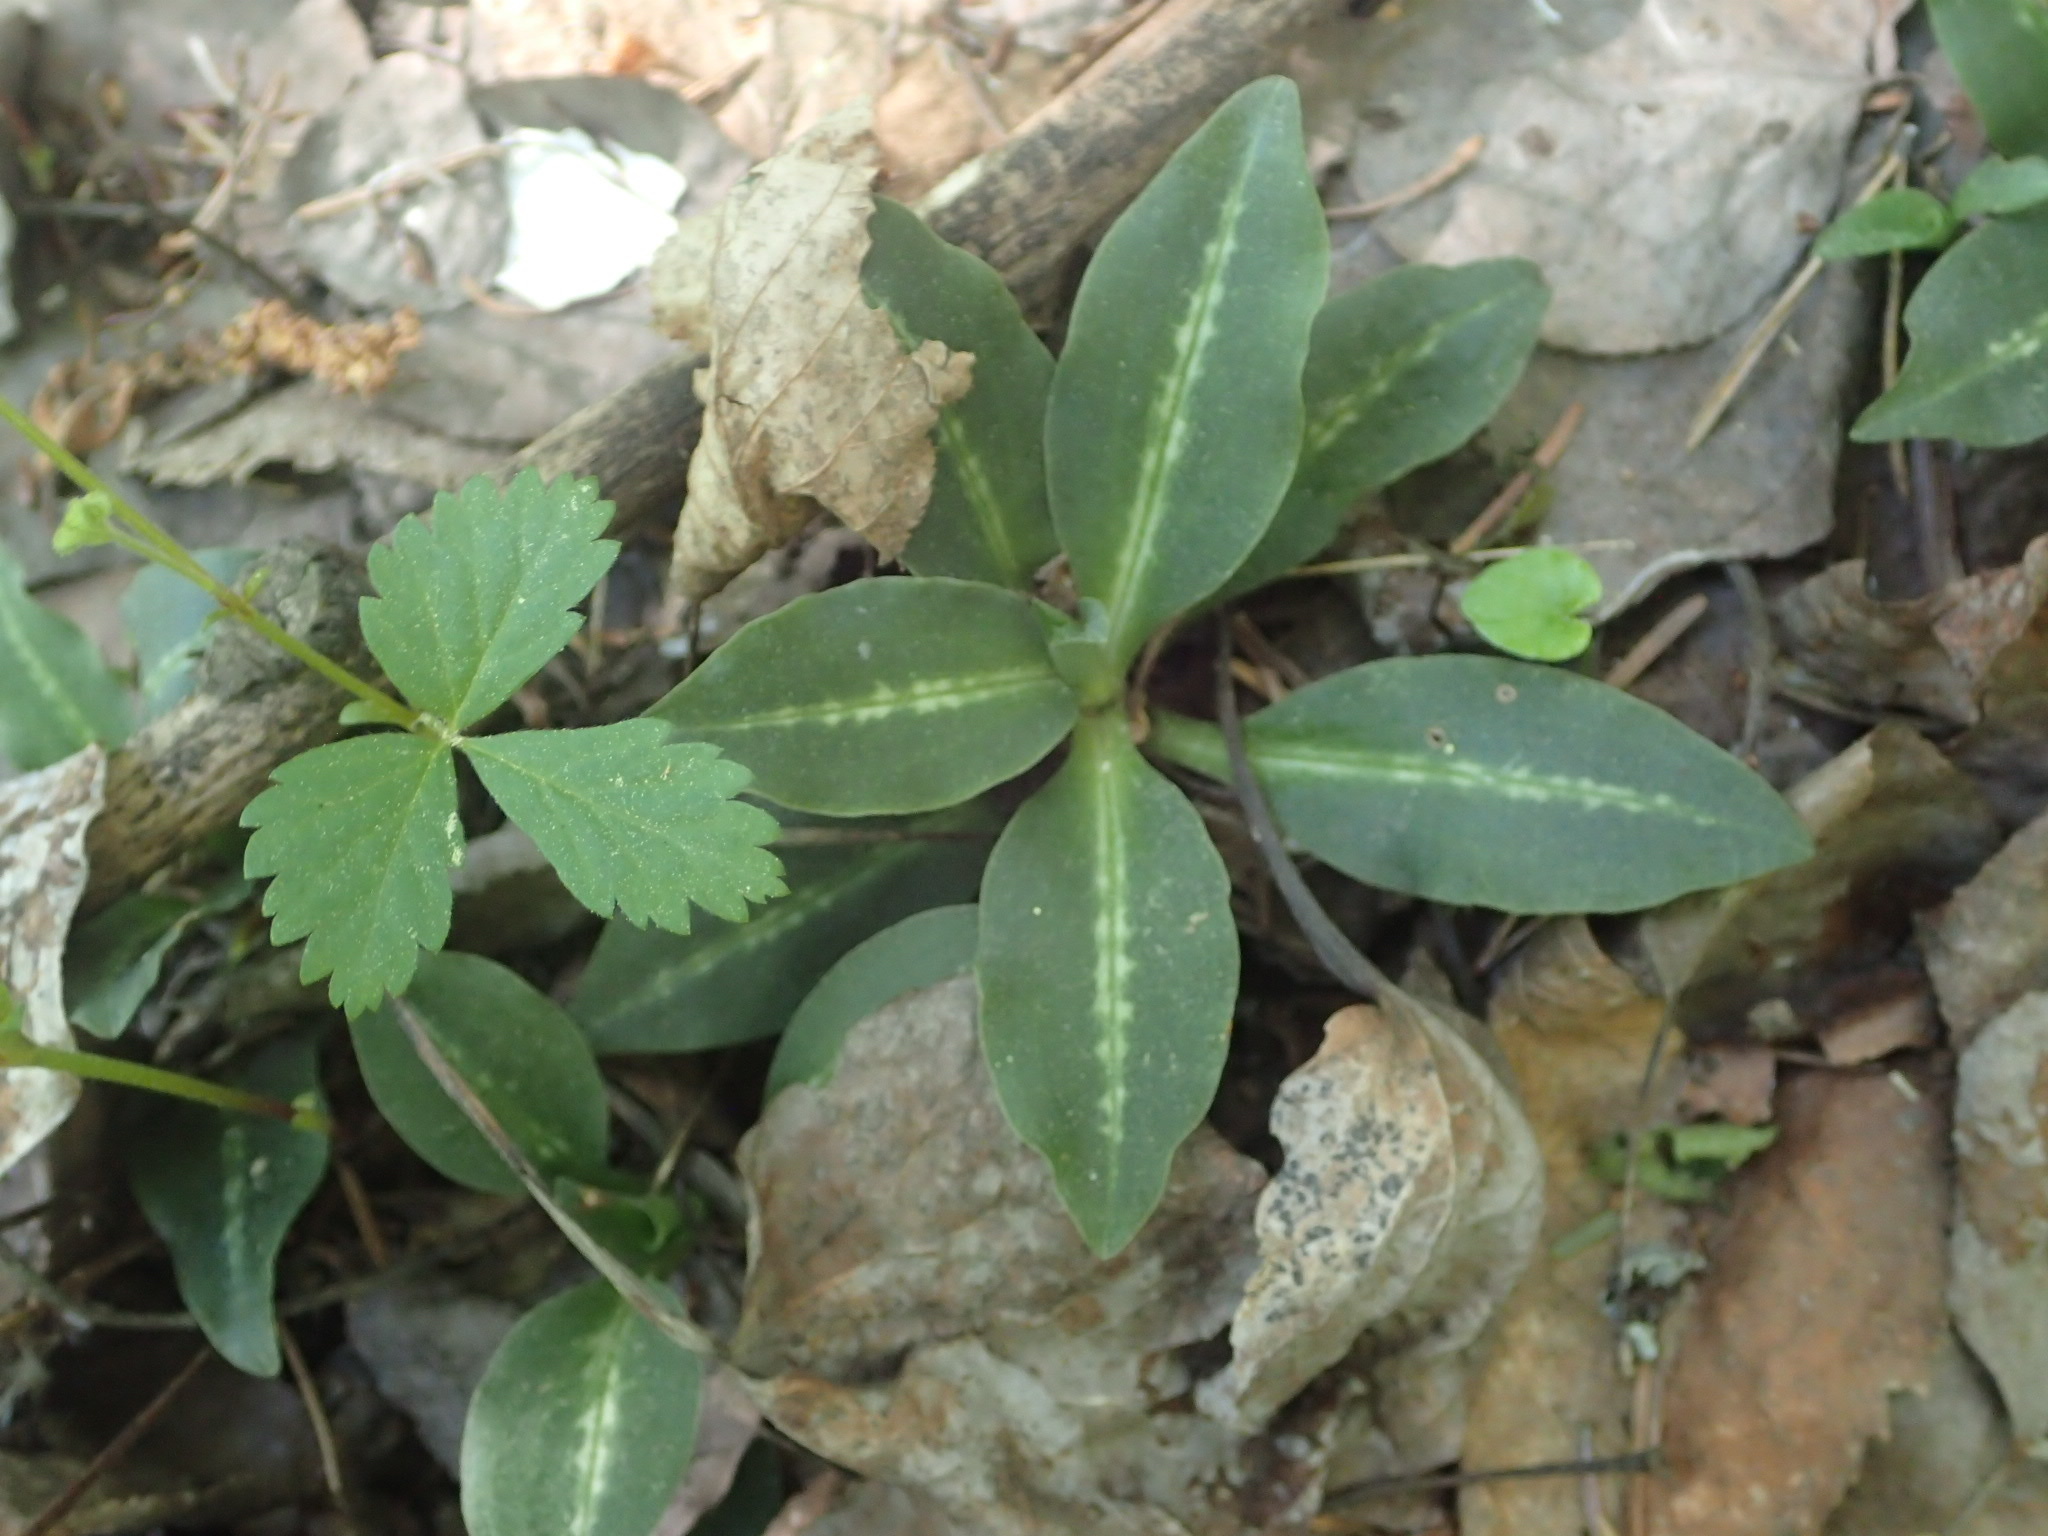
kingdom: Plantae
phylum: Tracheophyta
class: Liliopsida
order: Asparagales
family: Orchidaceae
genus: Goodyera
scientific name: Goodyera oblongifolia
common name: Giant rattlesnake-plantain
